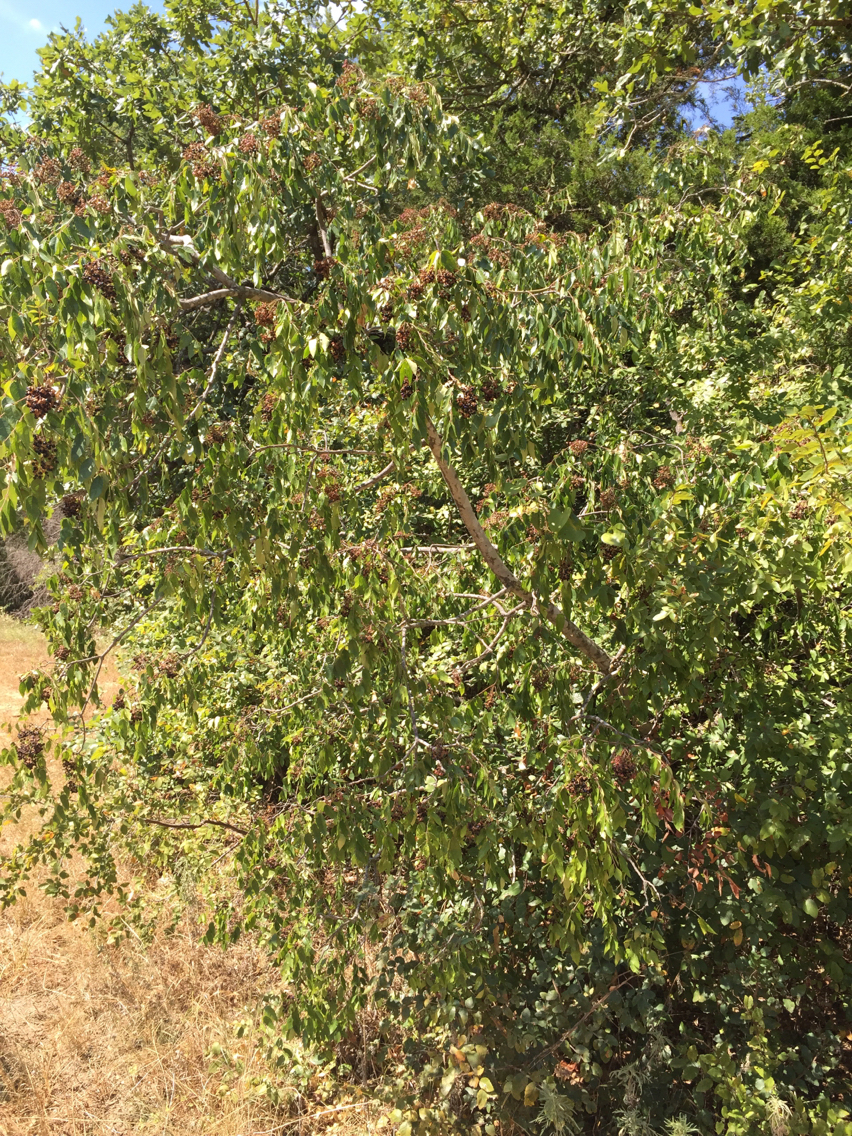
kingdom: Plantae
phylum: Tracheophyta
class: Magnoliopsida
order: Sapindales
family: Rutaceae
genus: Zanthoxylum
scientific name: Zanthoxylum clava-herculis
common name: Hercules'-club
